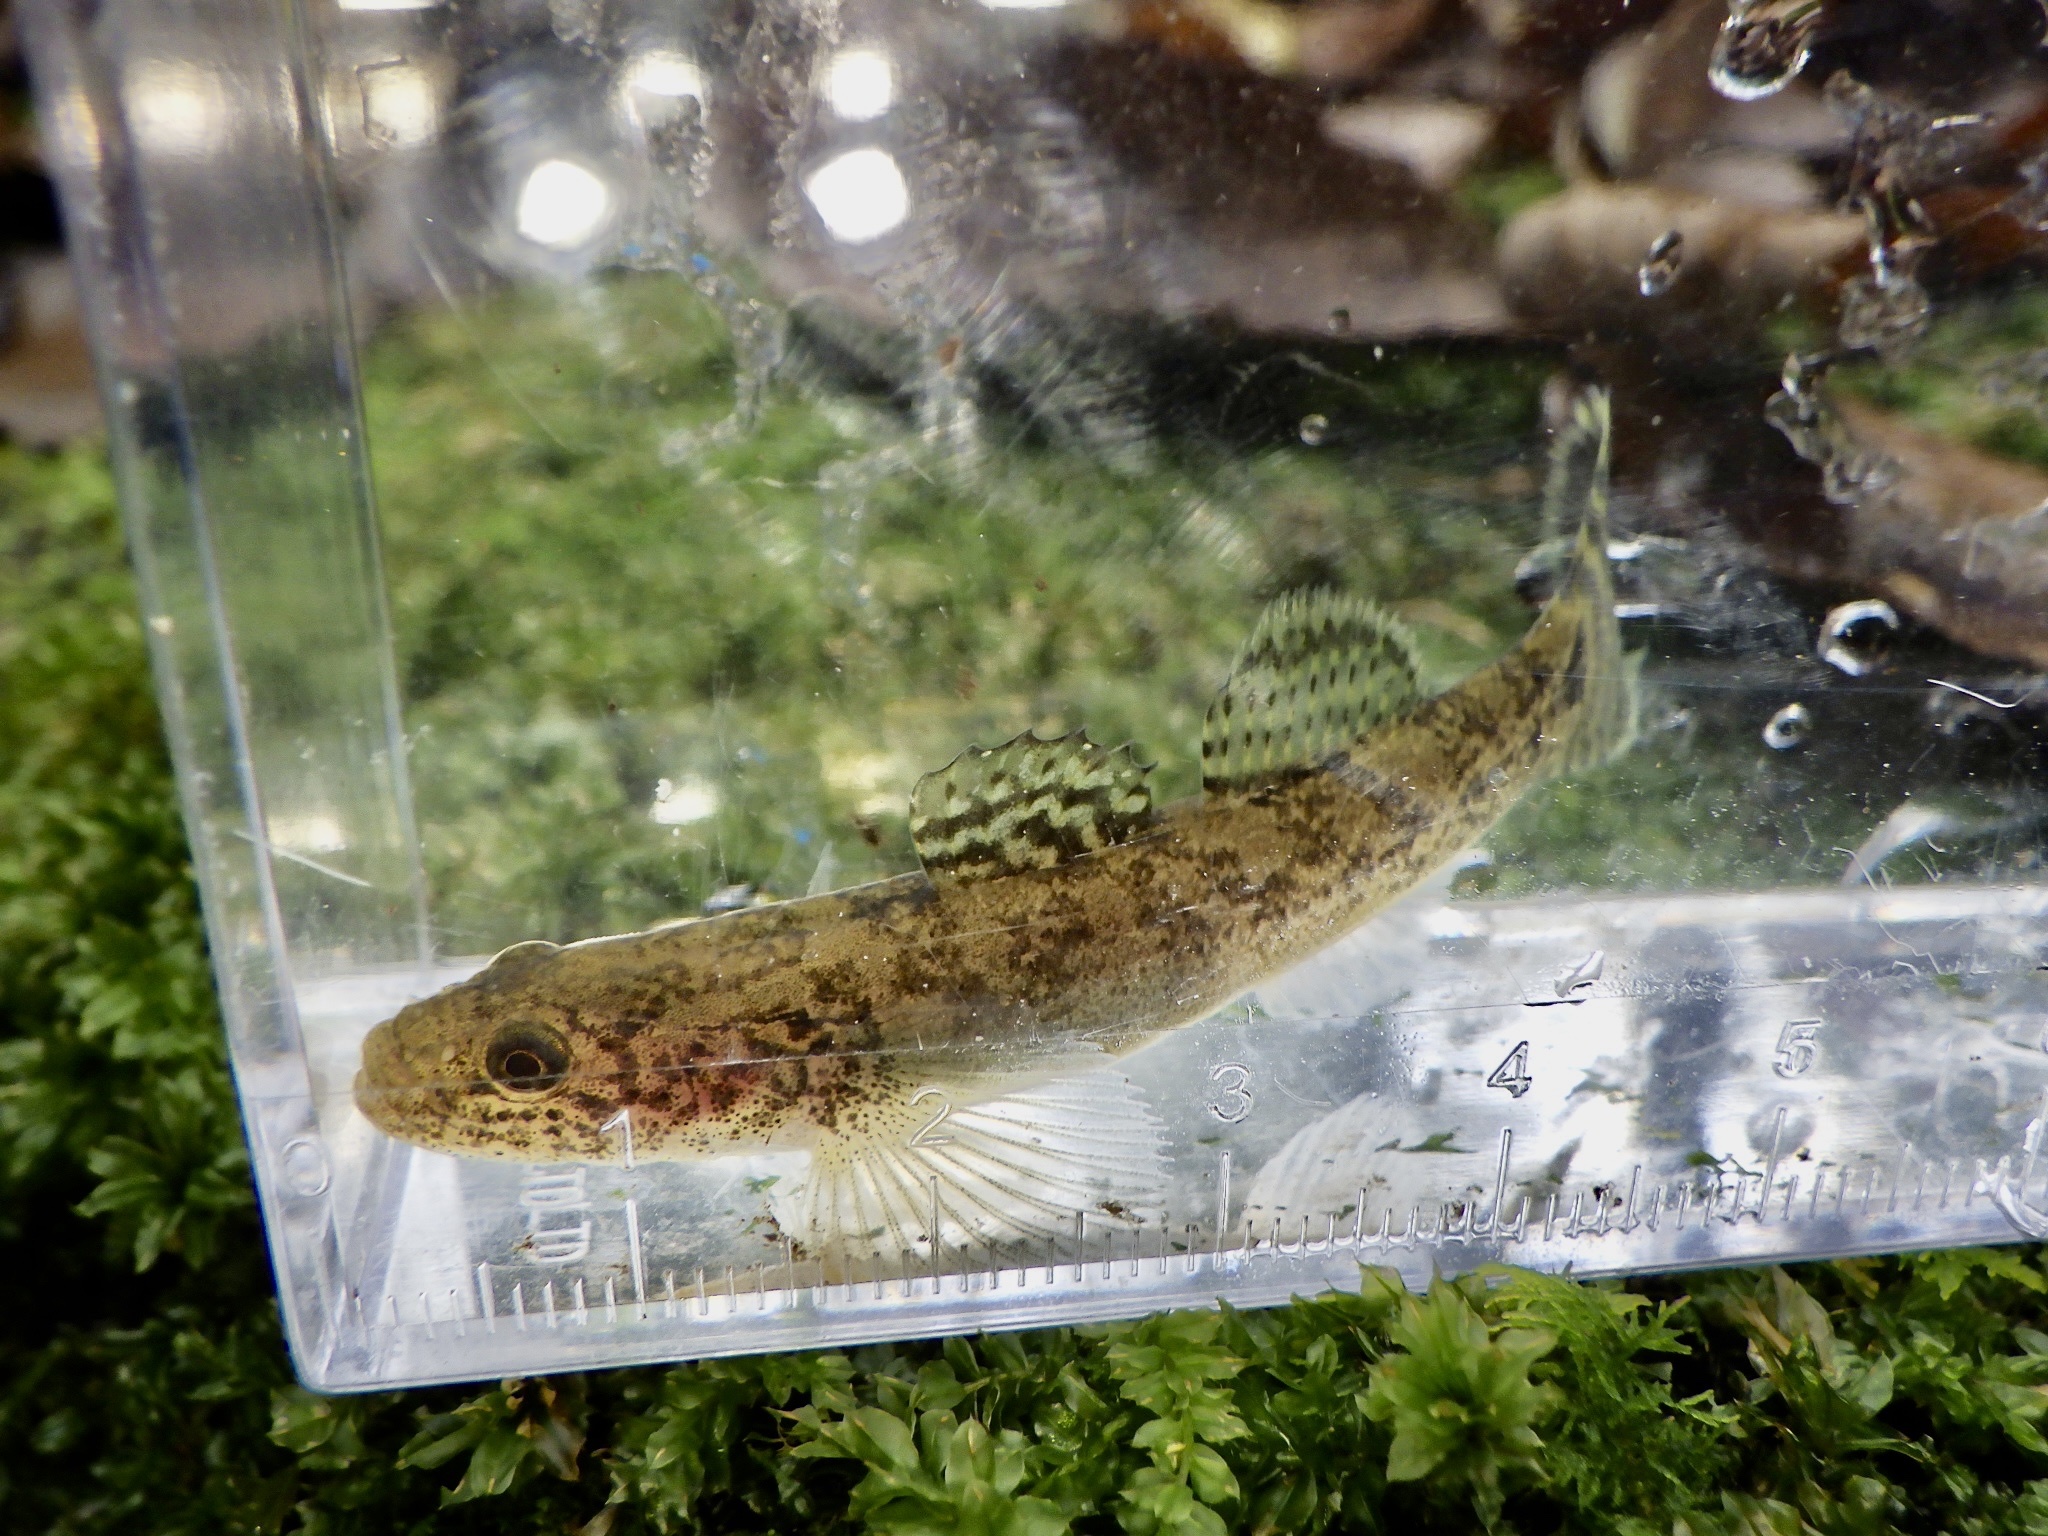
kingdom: Animalia
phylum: Chordata
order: Perciformes
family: Gobiidae
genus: Gymnogobius
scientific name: Gymnogobius petschiliensis
